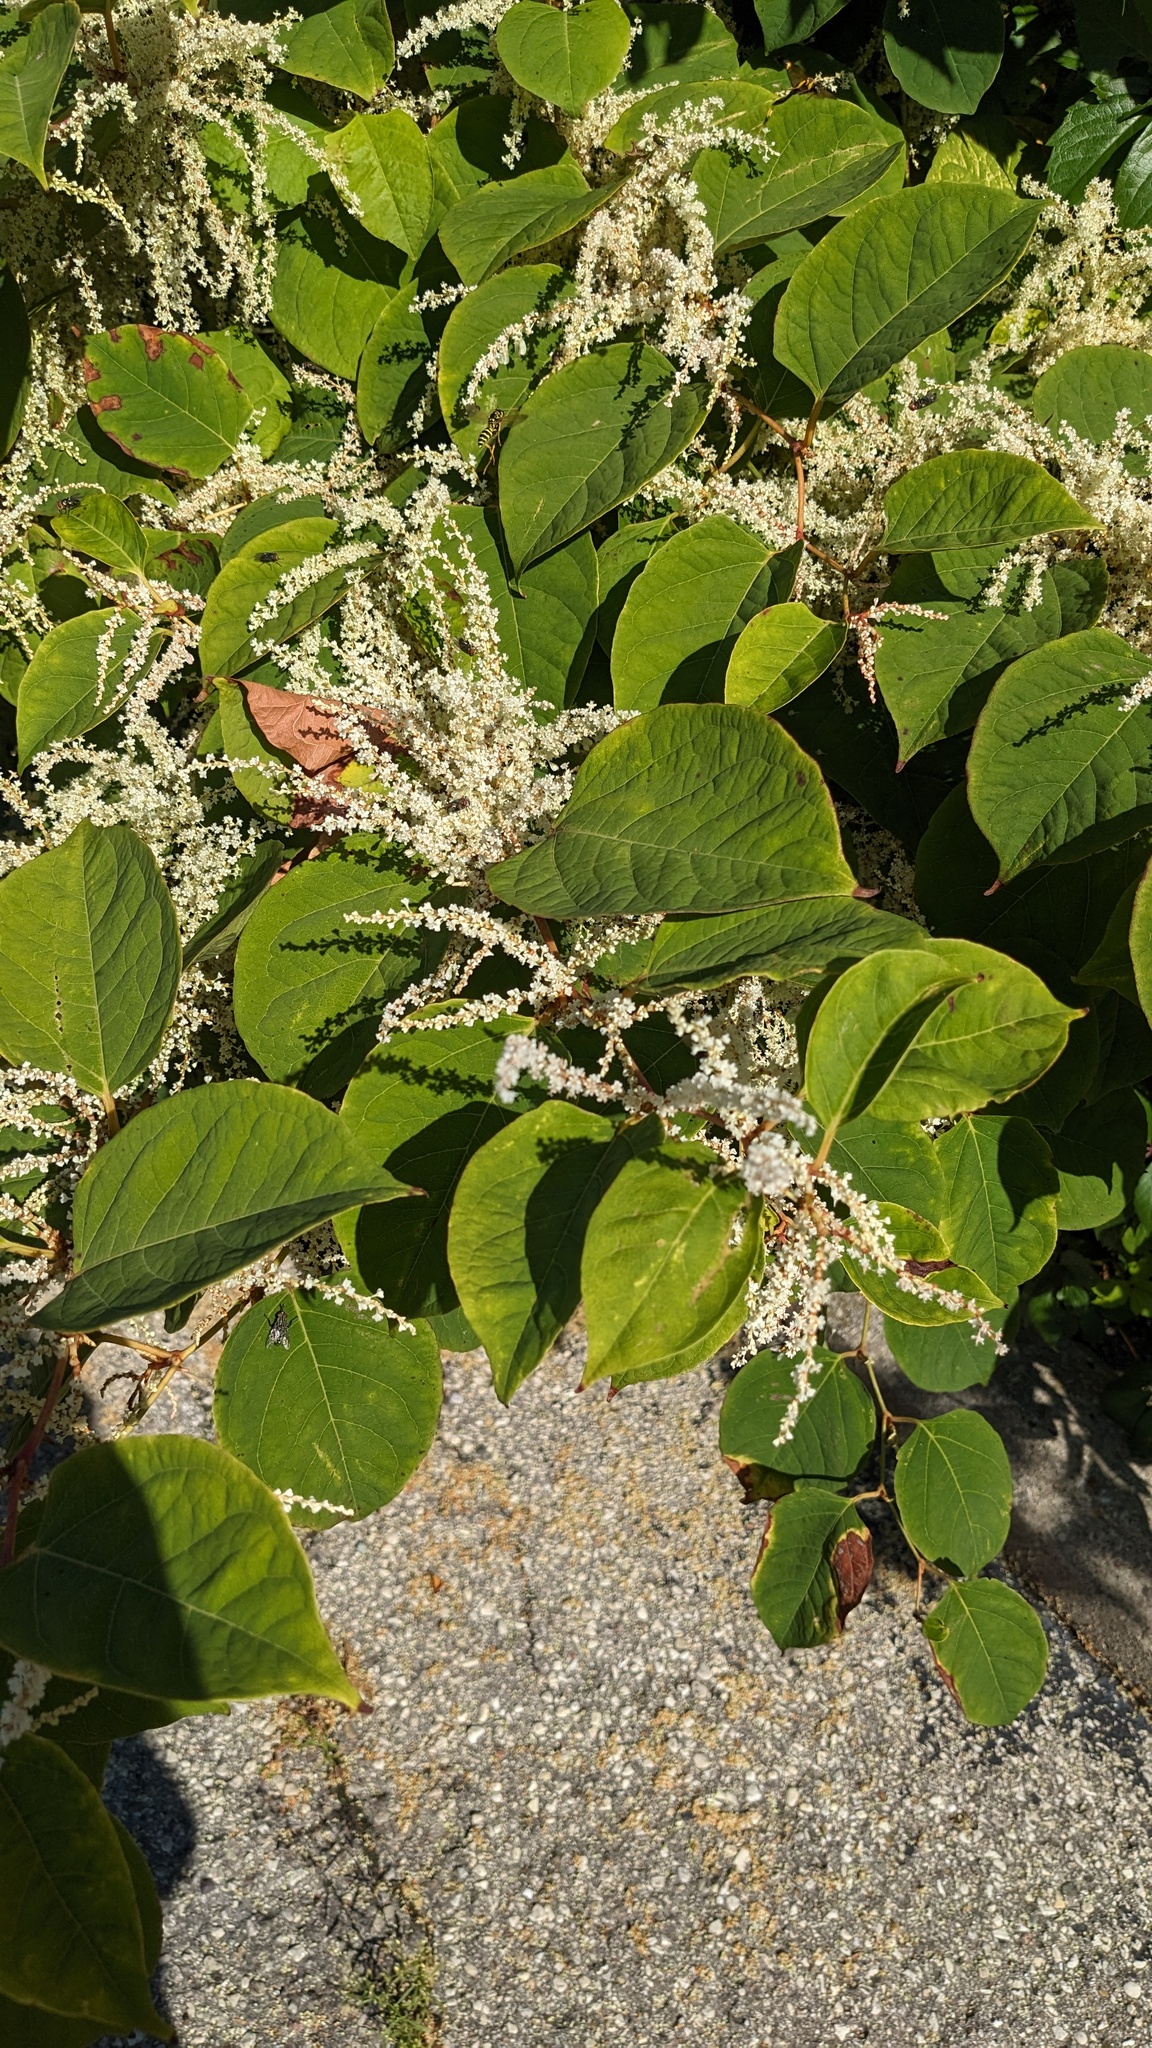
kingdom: Plantae
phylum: Tracheophyta
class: Magnoliopsida
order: Caryophyllales
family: Polygonaceae
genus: Reynoutria
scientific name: Reynoutria japonica
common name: Japanese knotweed
